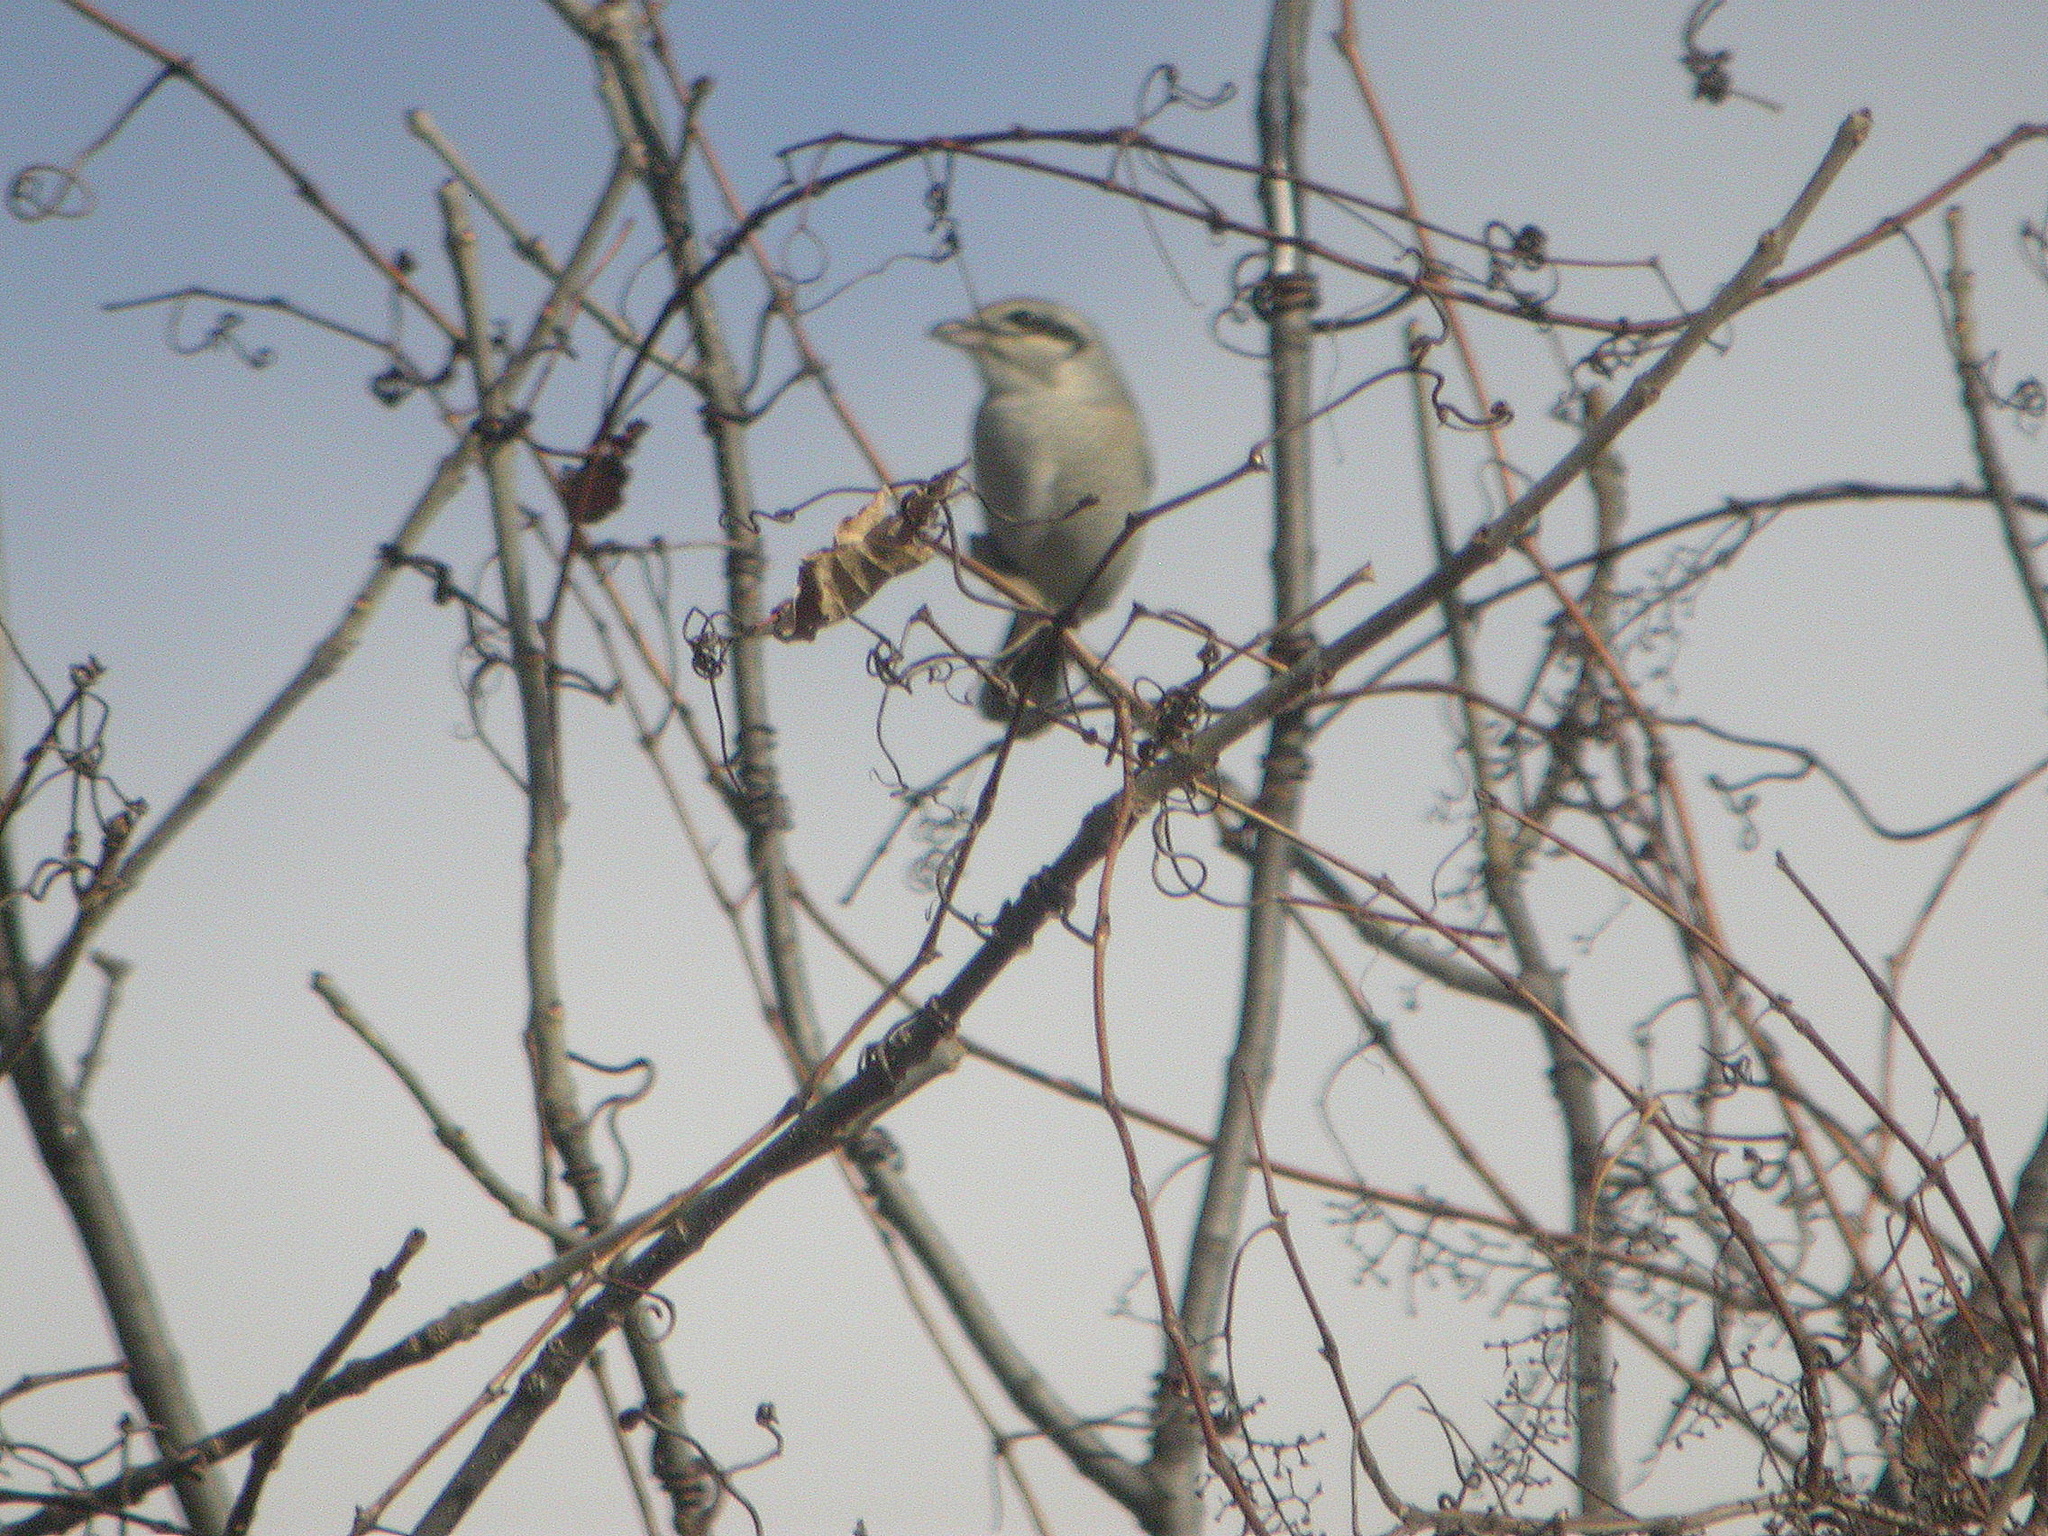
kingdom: Animalia
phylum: Chordata
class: Aves
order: Passeriformes
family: Laniidae
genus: Lanius
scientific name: Lanius borealis
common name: Northern shrike
